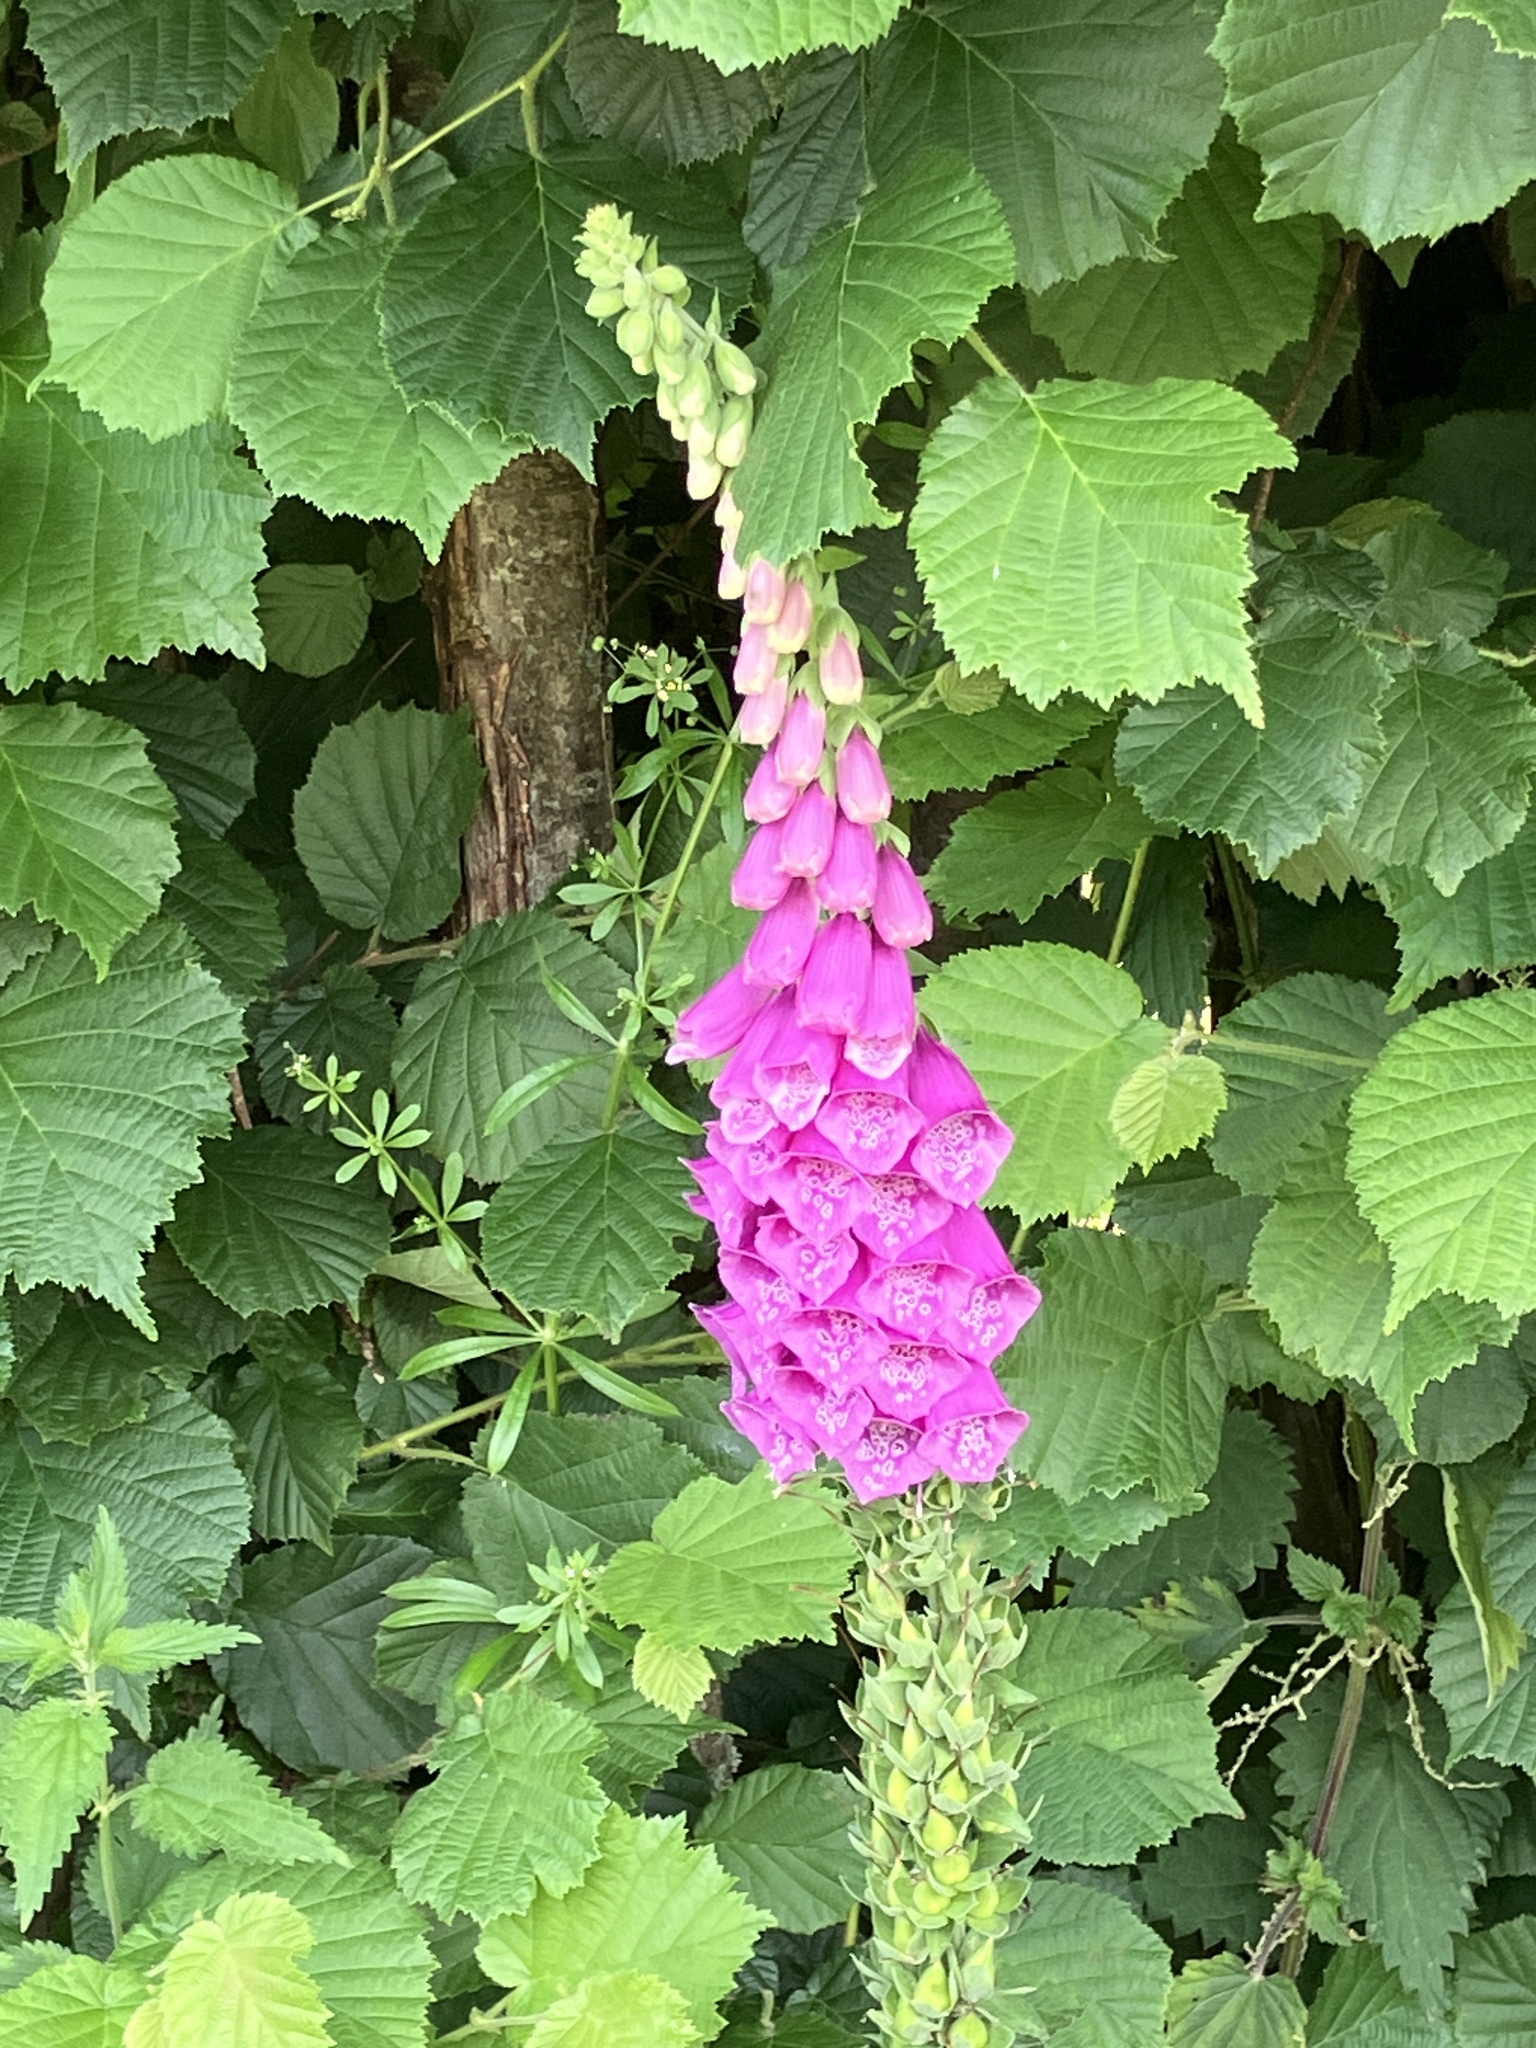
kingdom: Plantae
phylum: Tracheophyta
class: Magnoliopsida
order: Lamiales
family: Plantaginaceae
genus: Digitalis
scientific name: Digitalis purpurea
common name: Foxglove
